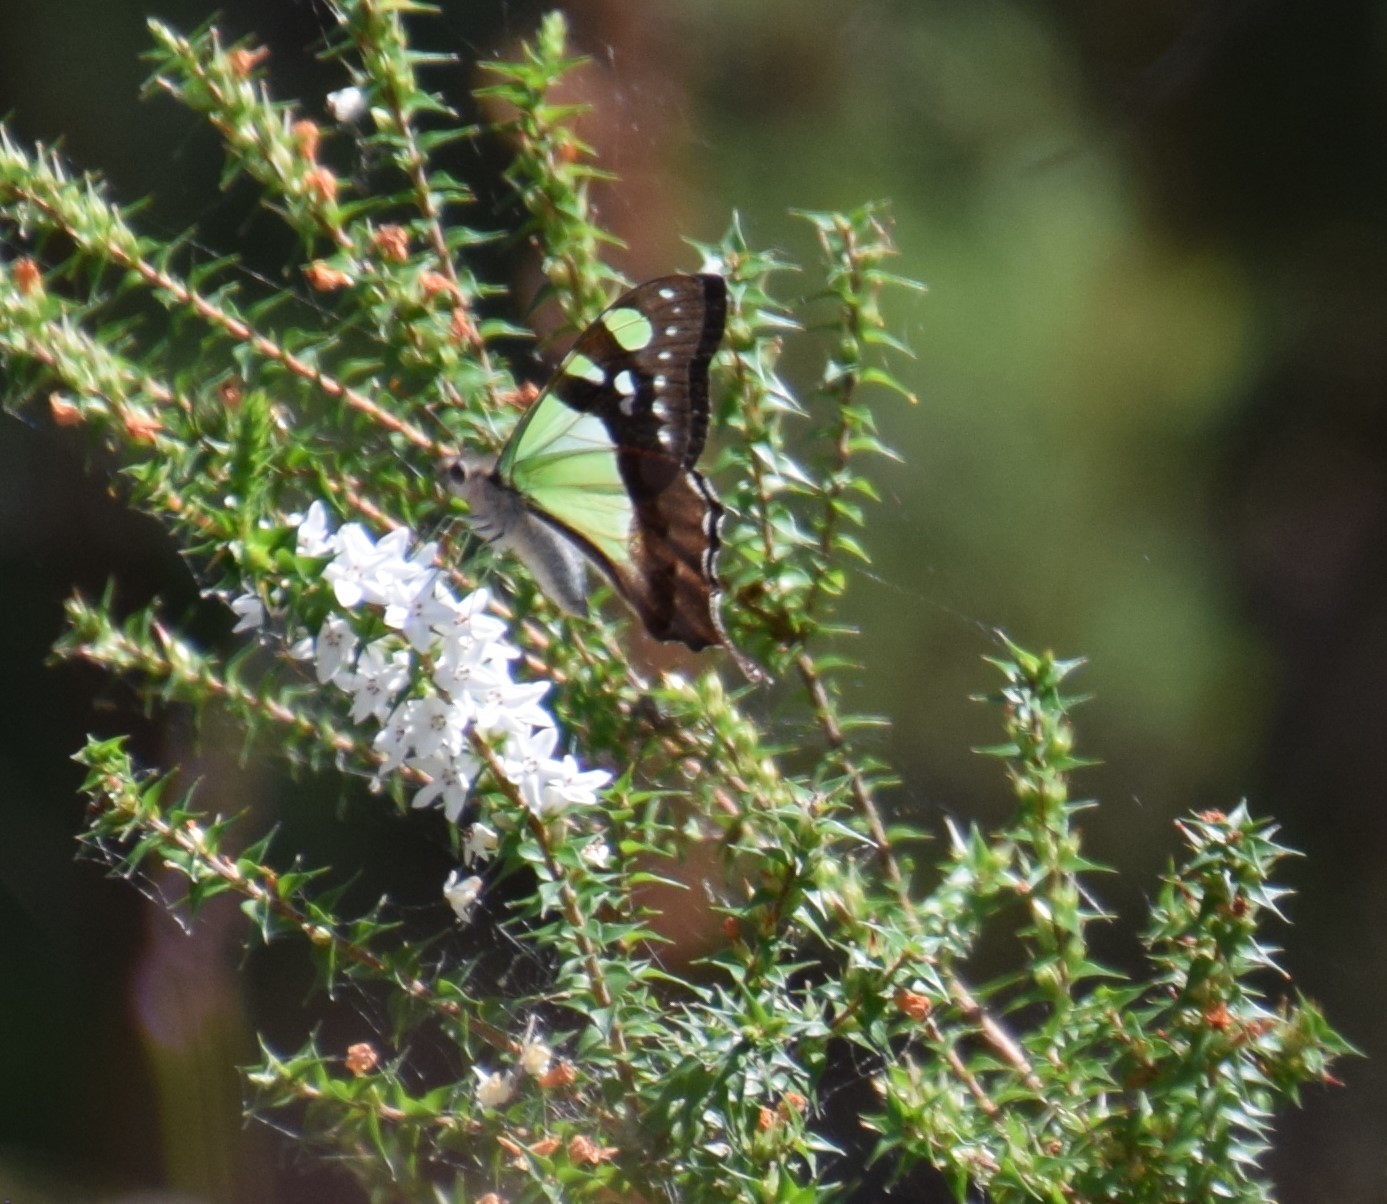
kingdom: Animalia
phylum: Arthropoda
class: Insecta
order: Lepidoptera
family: Papilionidae
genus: Graphium
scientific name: Graphium macleayanus
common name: Macleay's swallowtail
